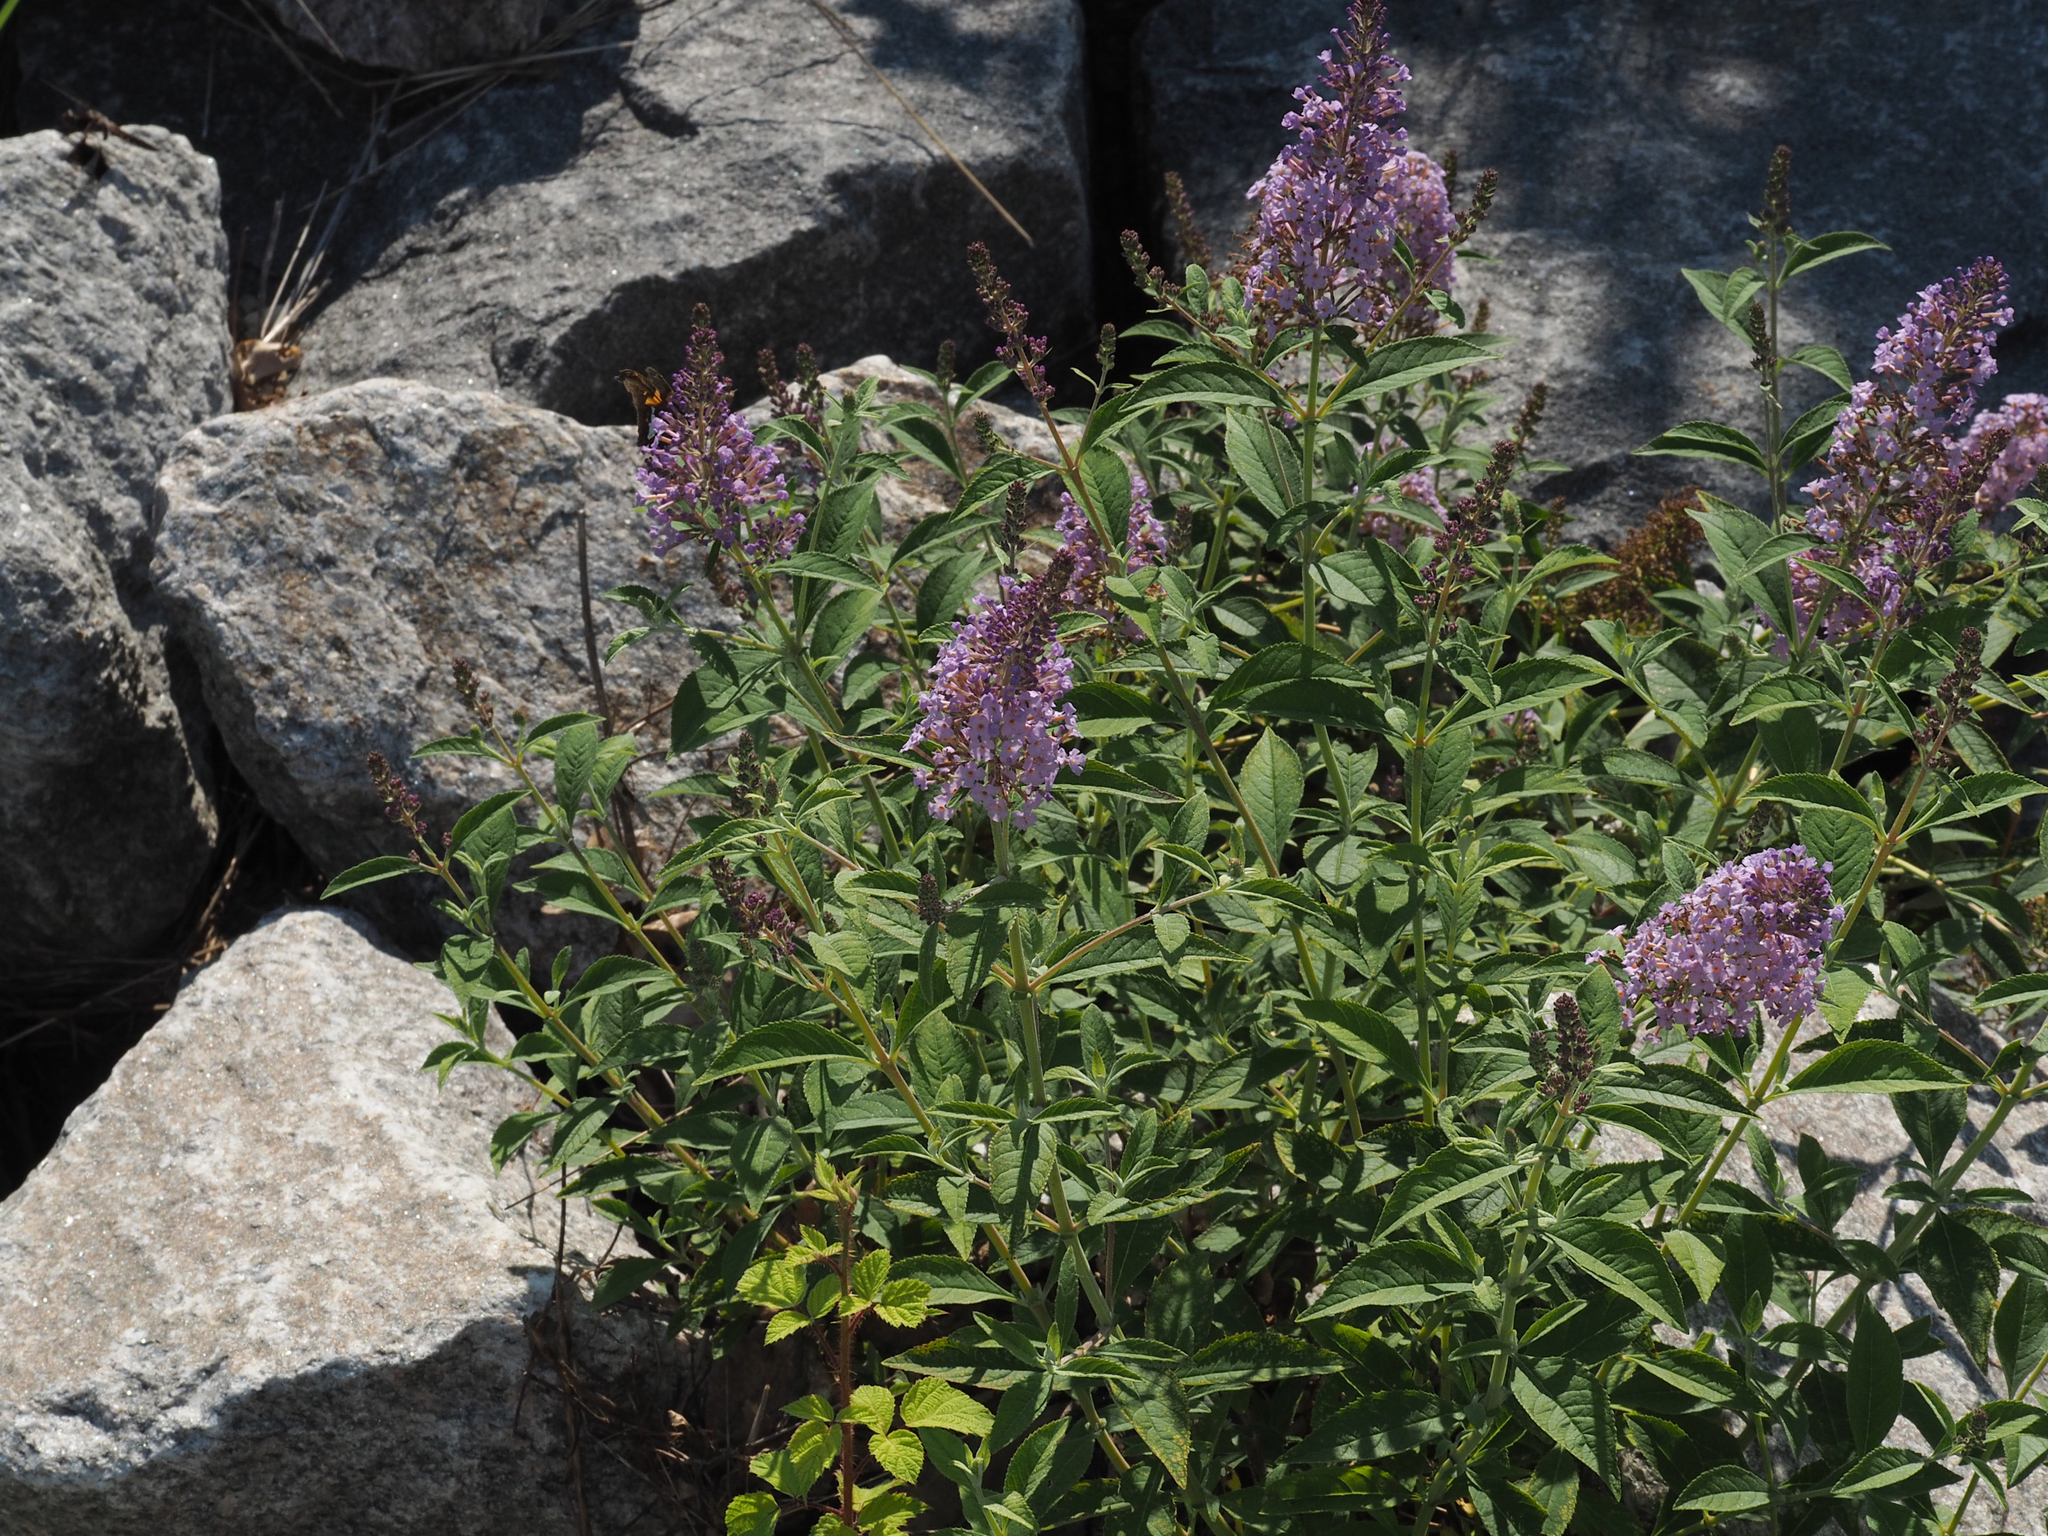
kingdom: Plantae
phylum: Tracheophyta
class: Magnoliopsida
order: Lamiales
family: Scrophulariaceae
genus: Buddleja
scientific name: Buddleja davidii
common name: Butterfly-bush
